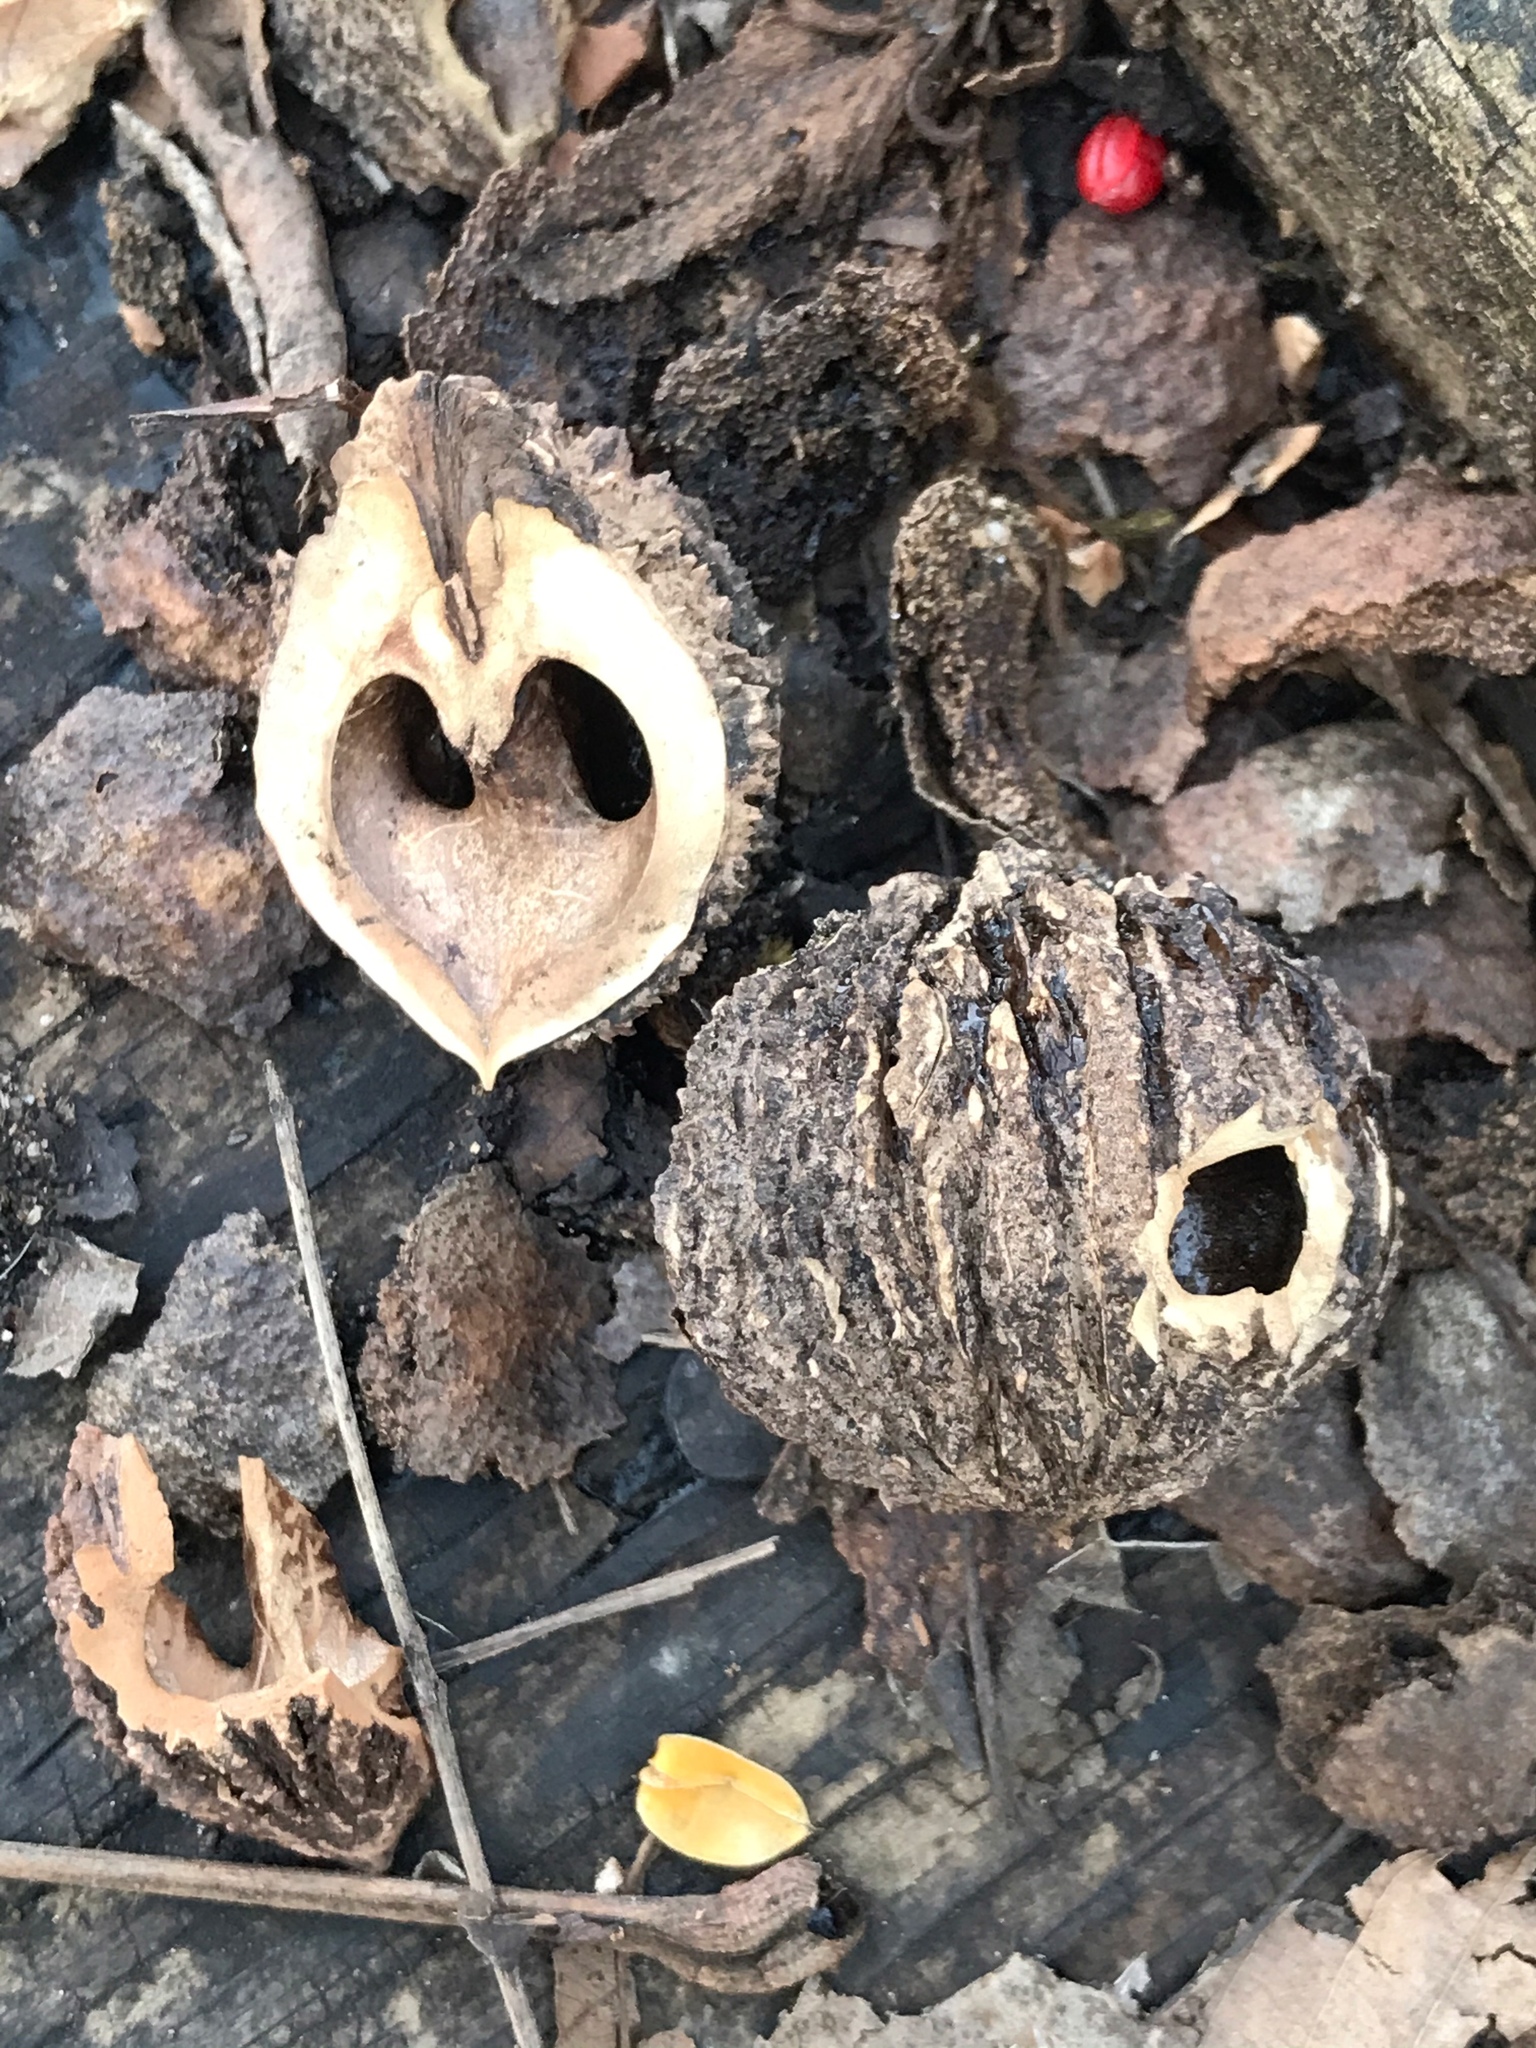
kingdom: Plantae
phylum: Tracheophyta
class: Magnoliopsida
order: Fagales
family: Juglandaceae
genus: Juglans
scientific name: Juglans nigra
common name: Black walnut
